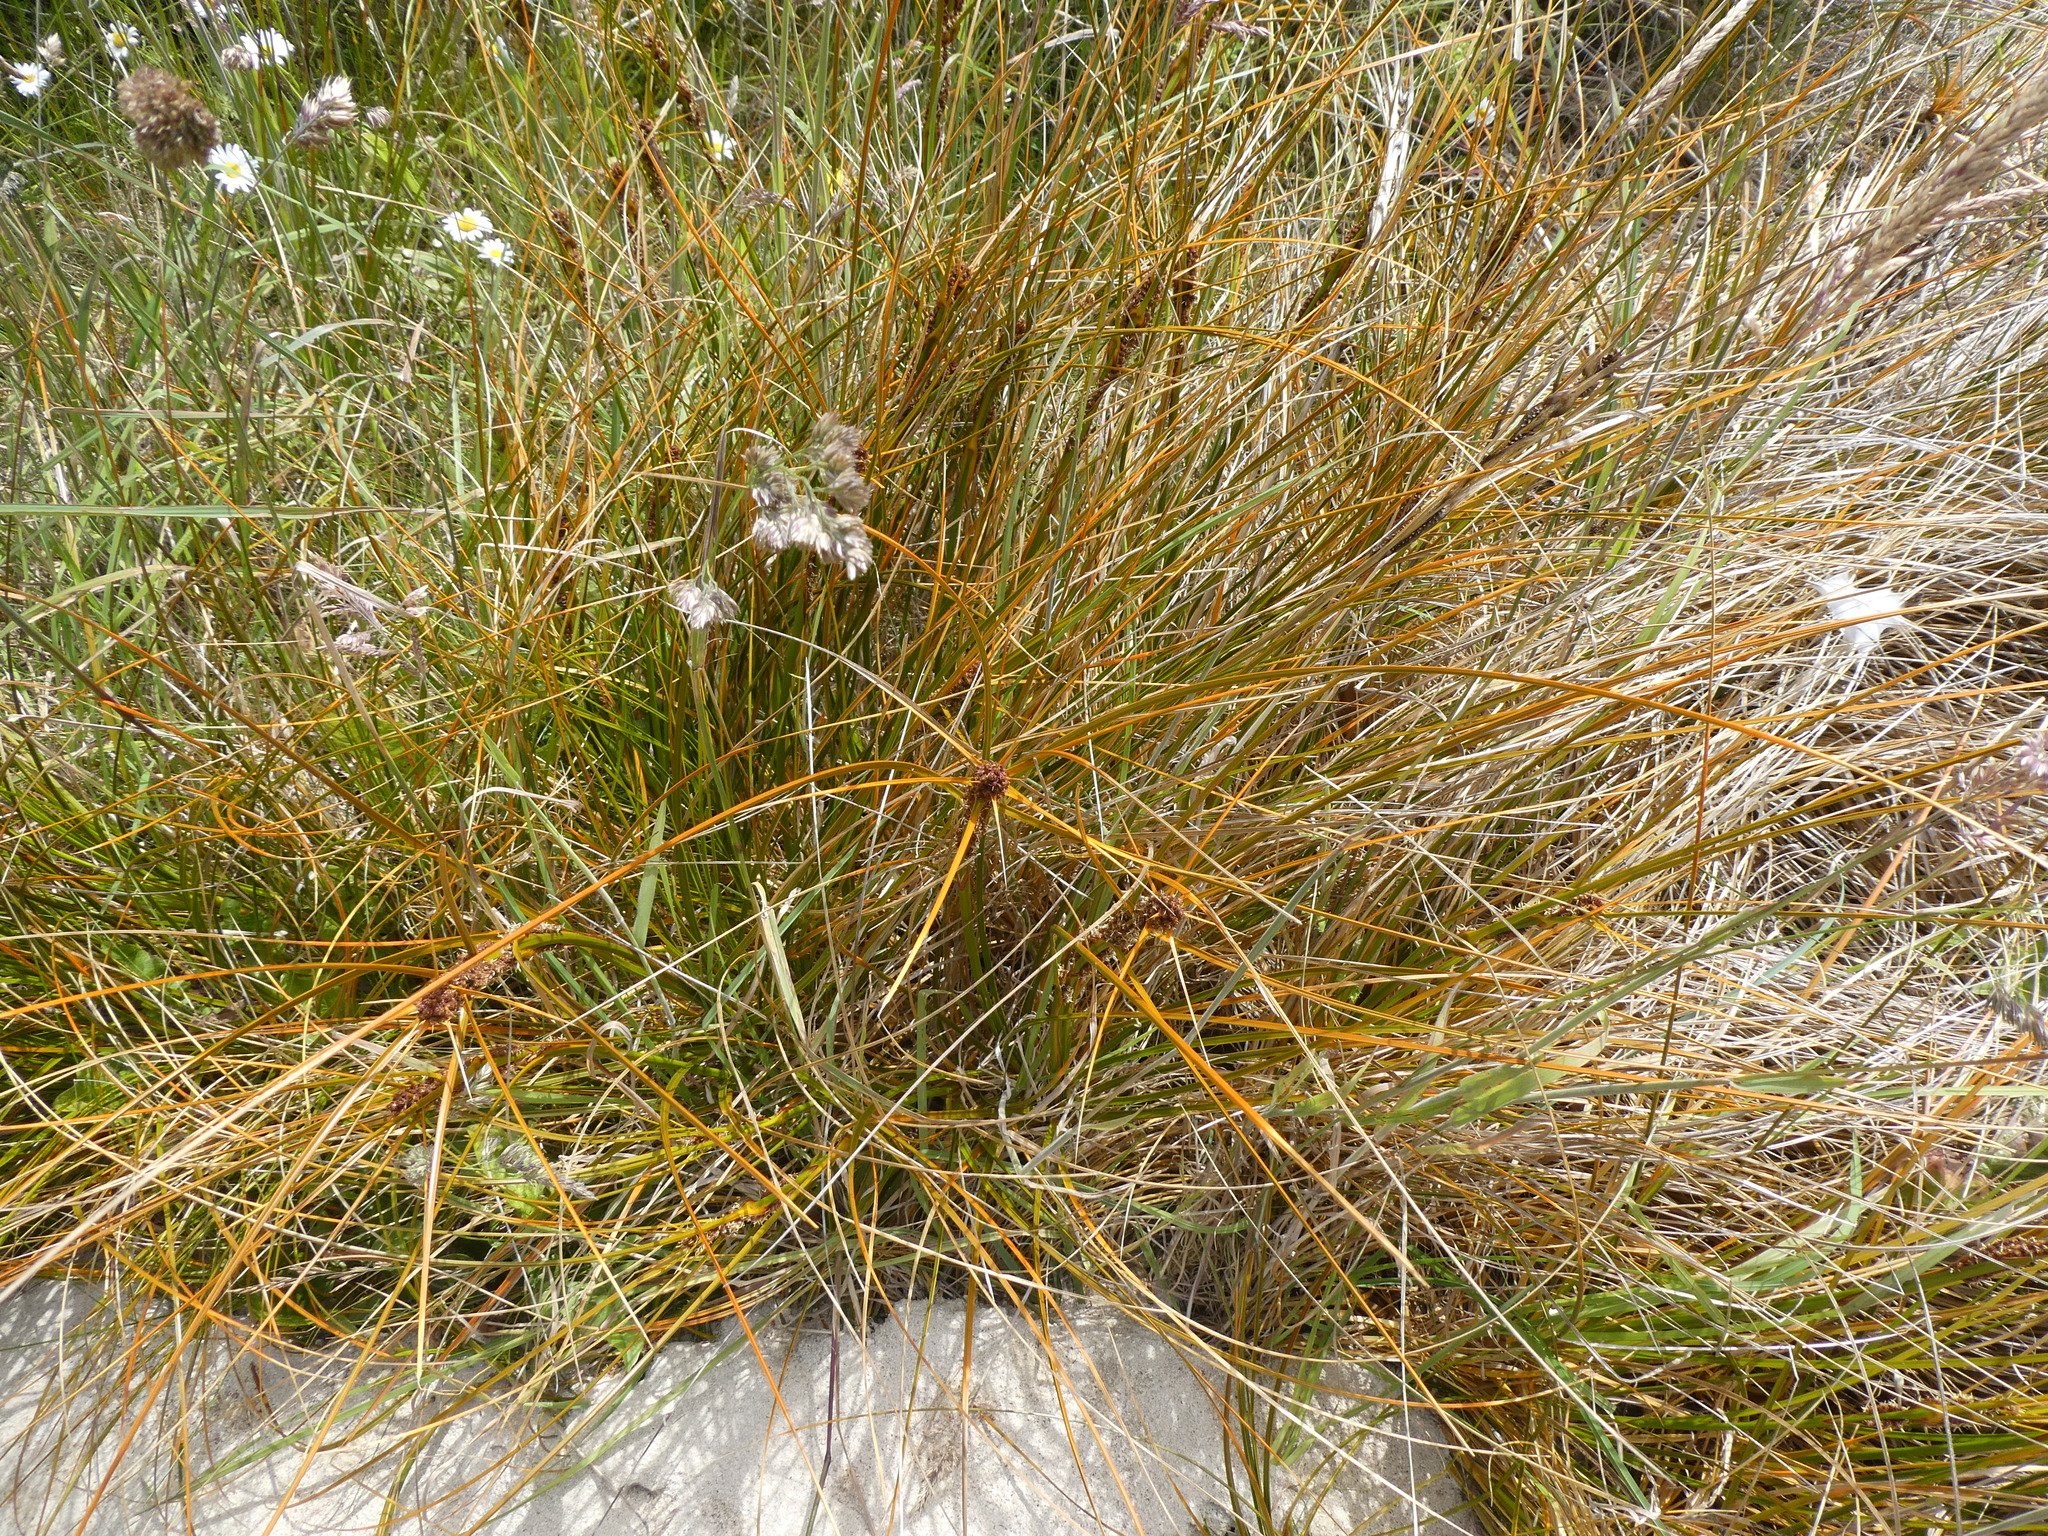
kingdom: Plantae
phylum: Tracheophyta
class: Liliopsida
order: Poales
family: Cyperaceae
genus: Ficinia
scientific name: Ficinia spiralis
